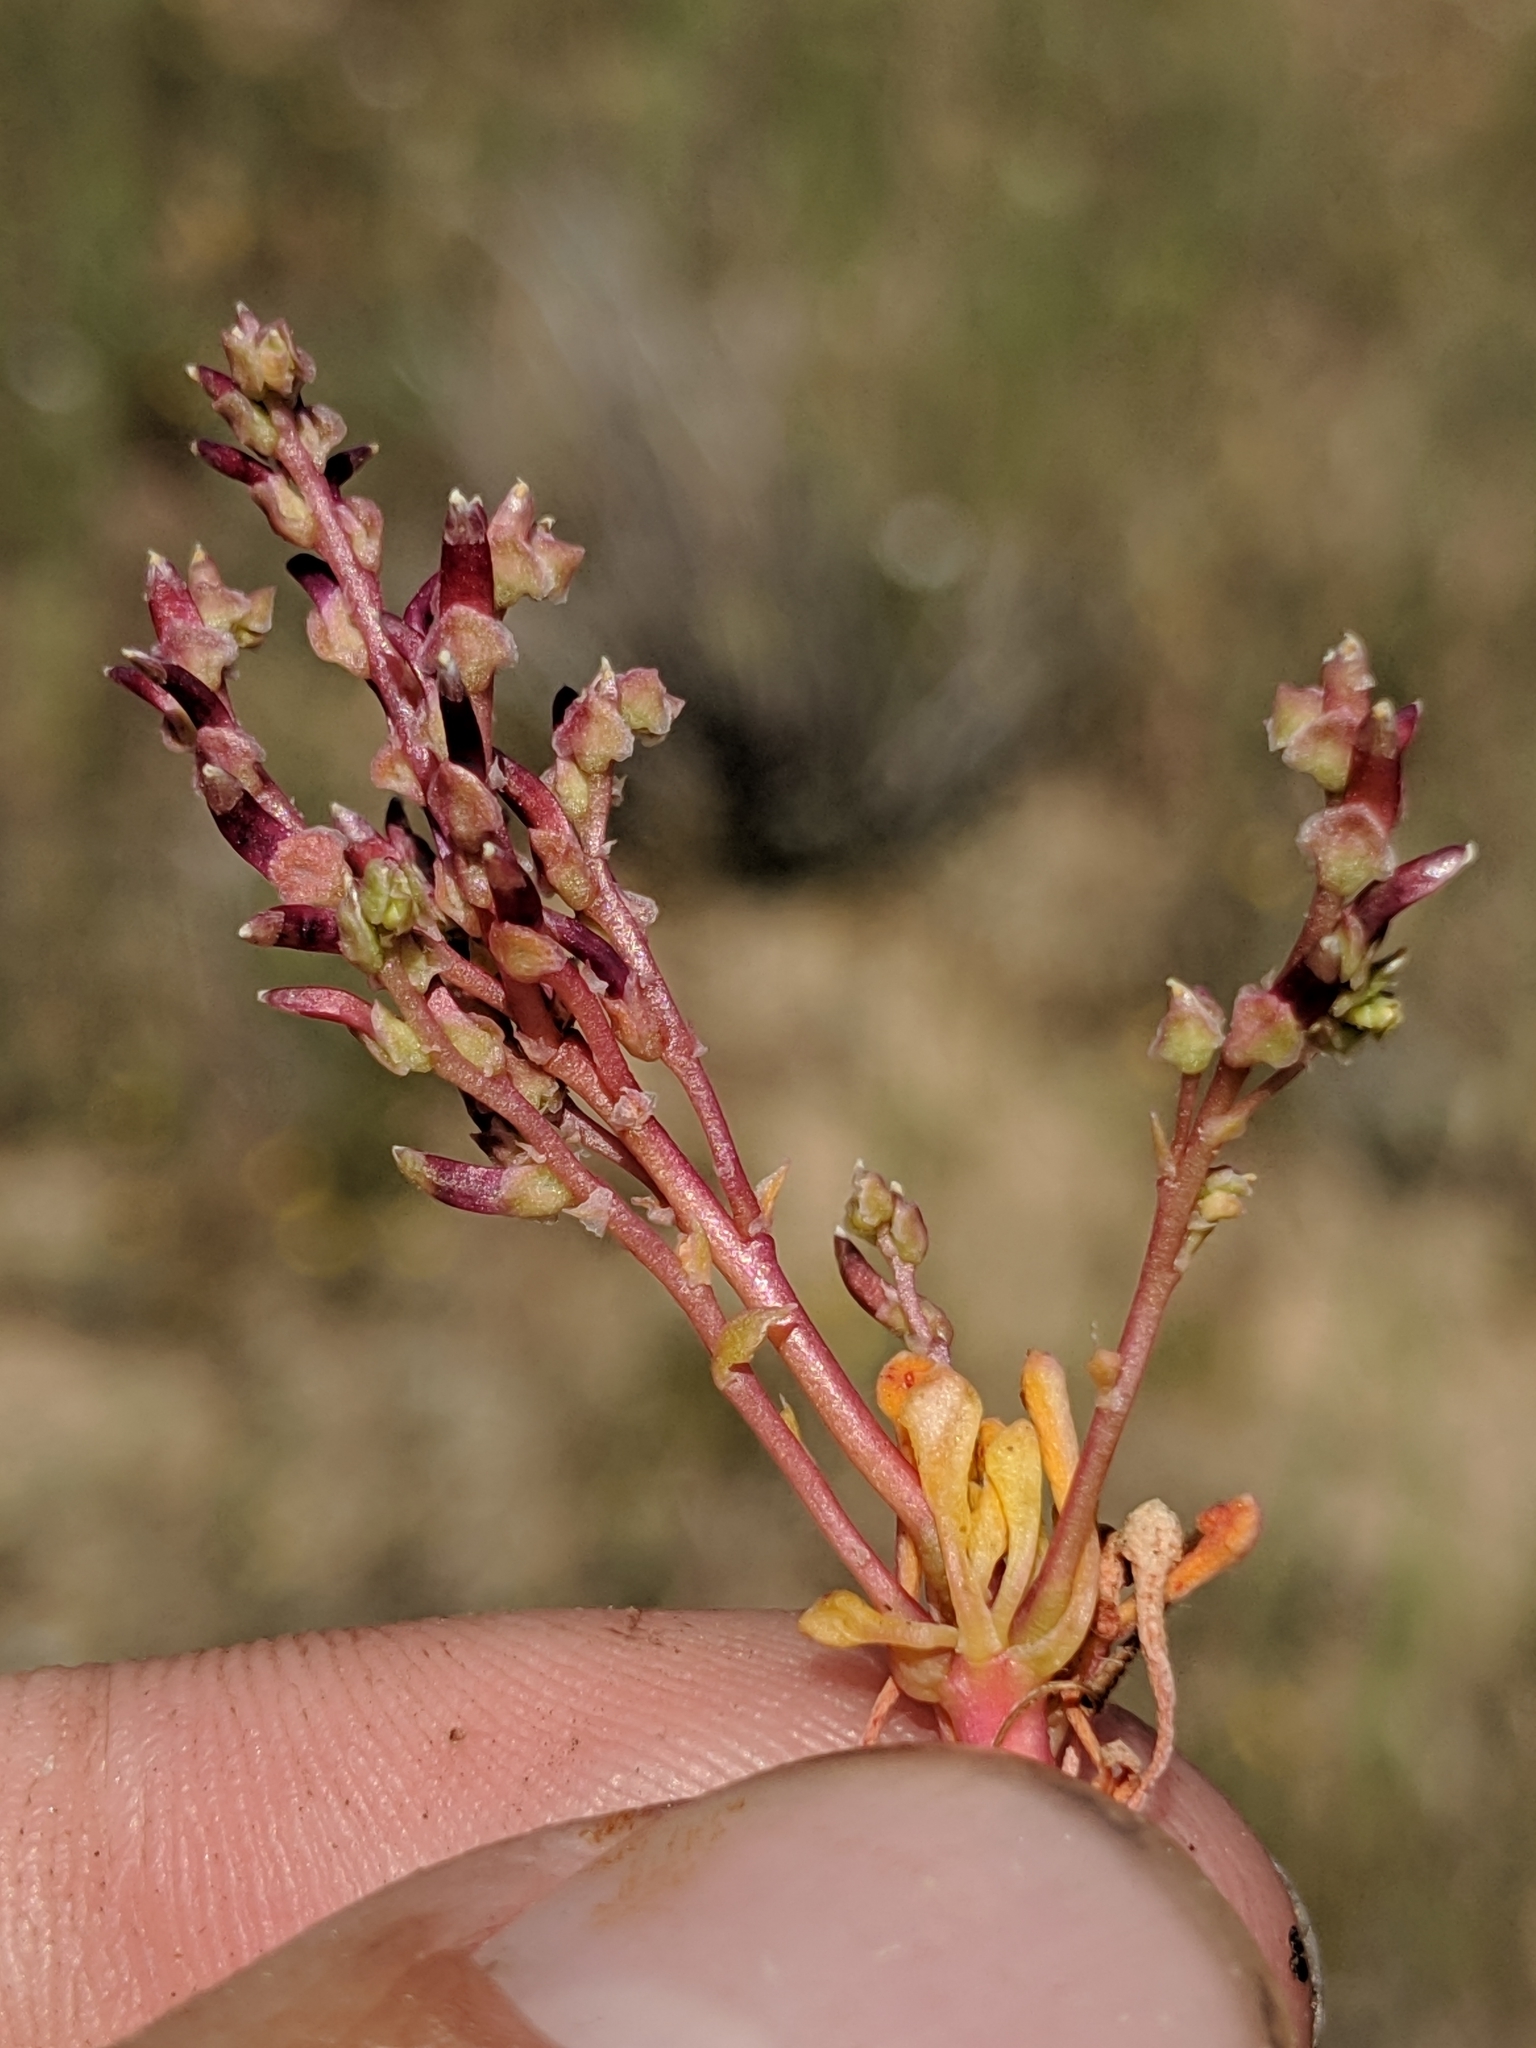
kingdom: Plantae
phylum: Tracheophyta
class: Magnoliopsida
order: Caryophyllales
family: Montiaceae
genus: Calyptridium
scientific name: Calyptridium monandrum
